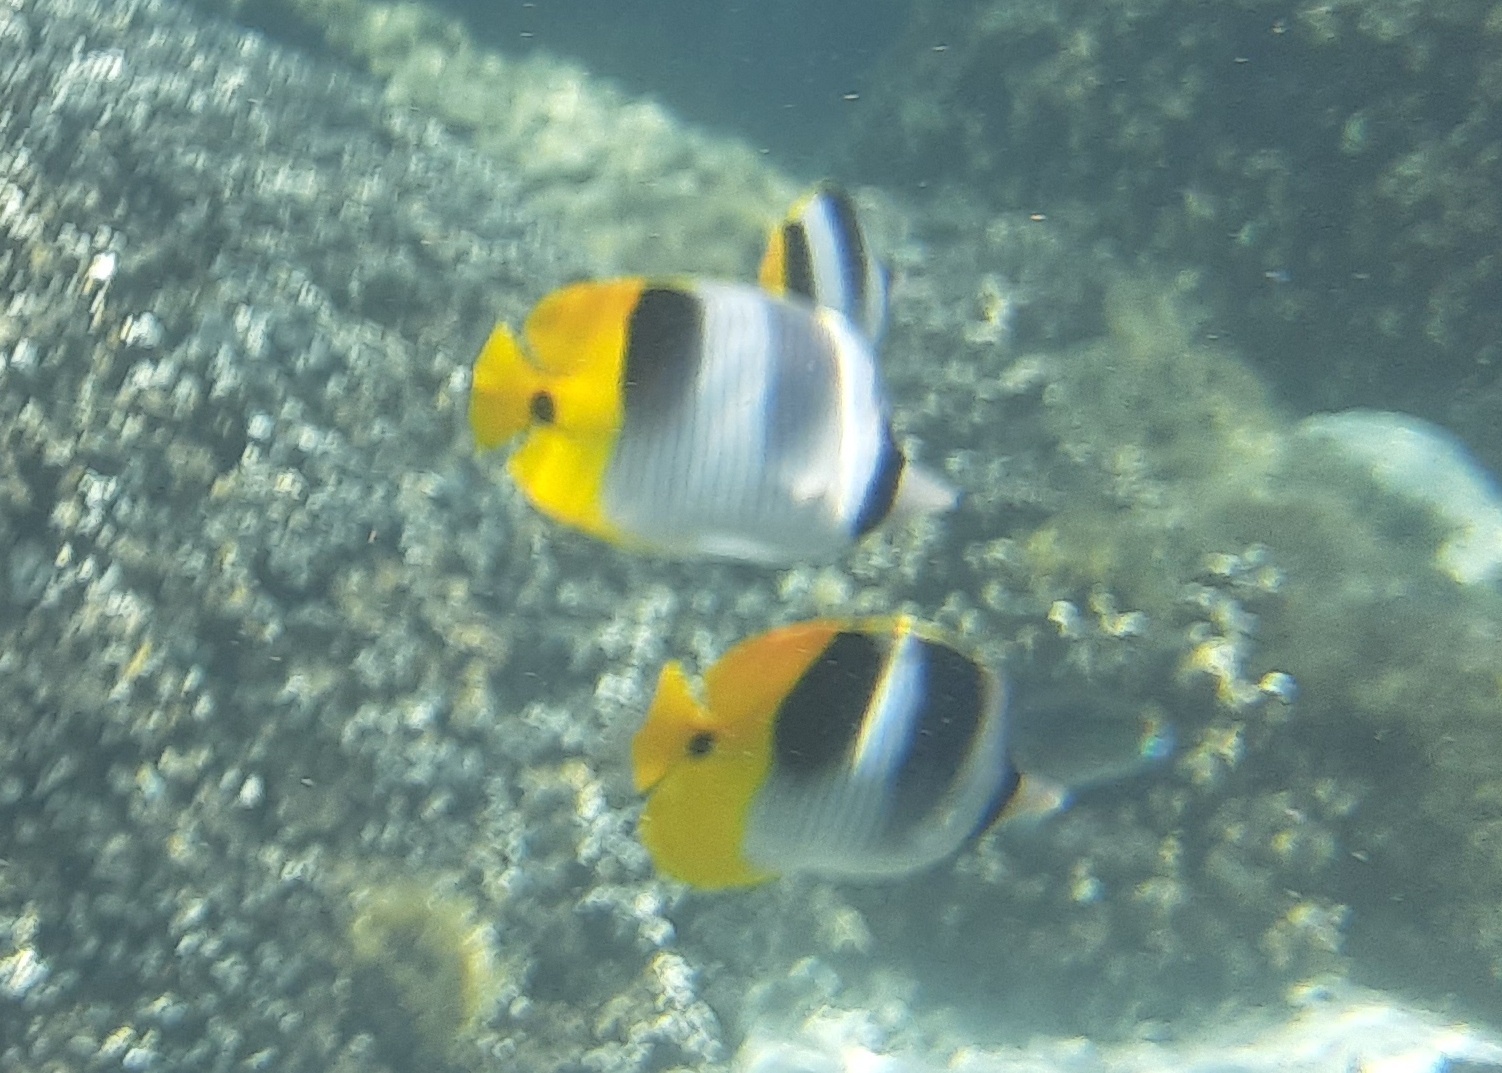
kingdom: Animalia
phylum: Chordata
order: Perciformes
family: Chaetodontidae
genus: Chaetodon
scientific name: Chaetodon ulietensis
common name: Pacific double-saddle butterflyfish
